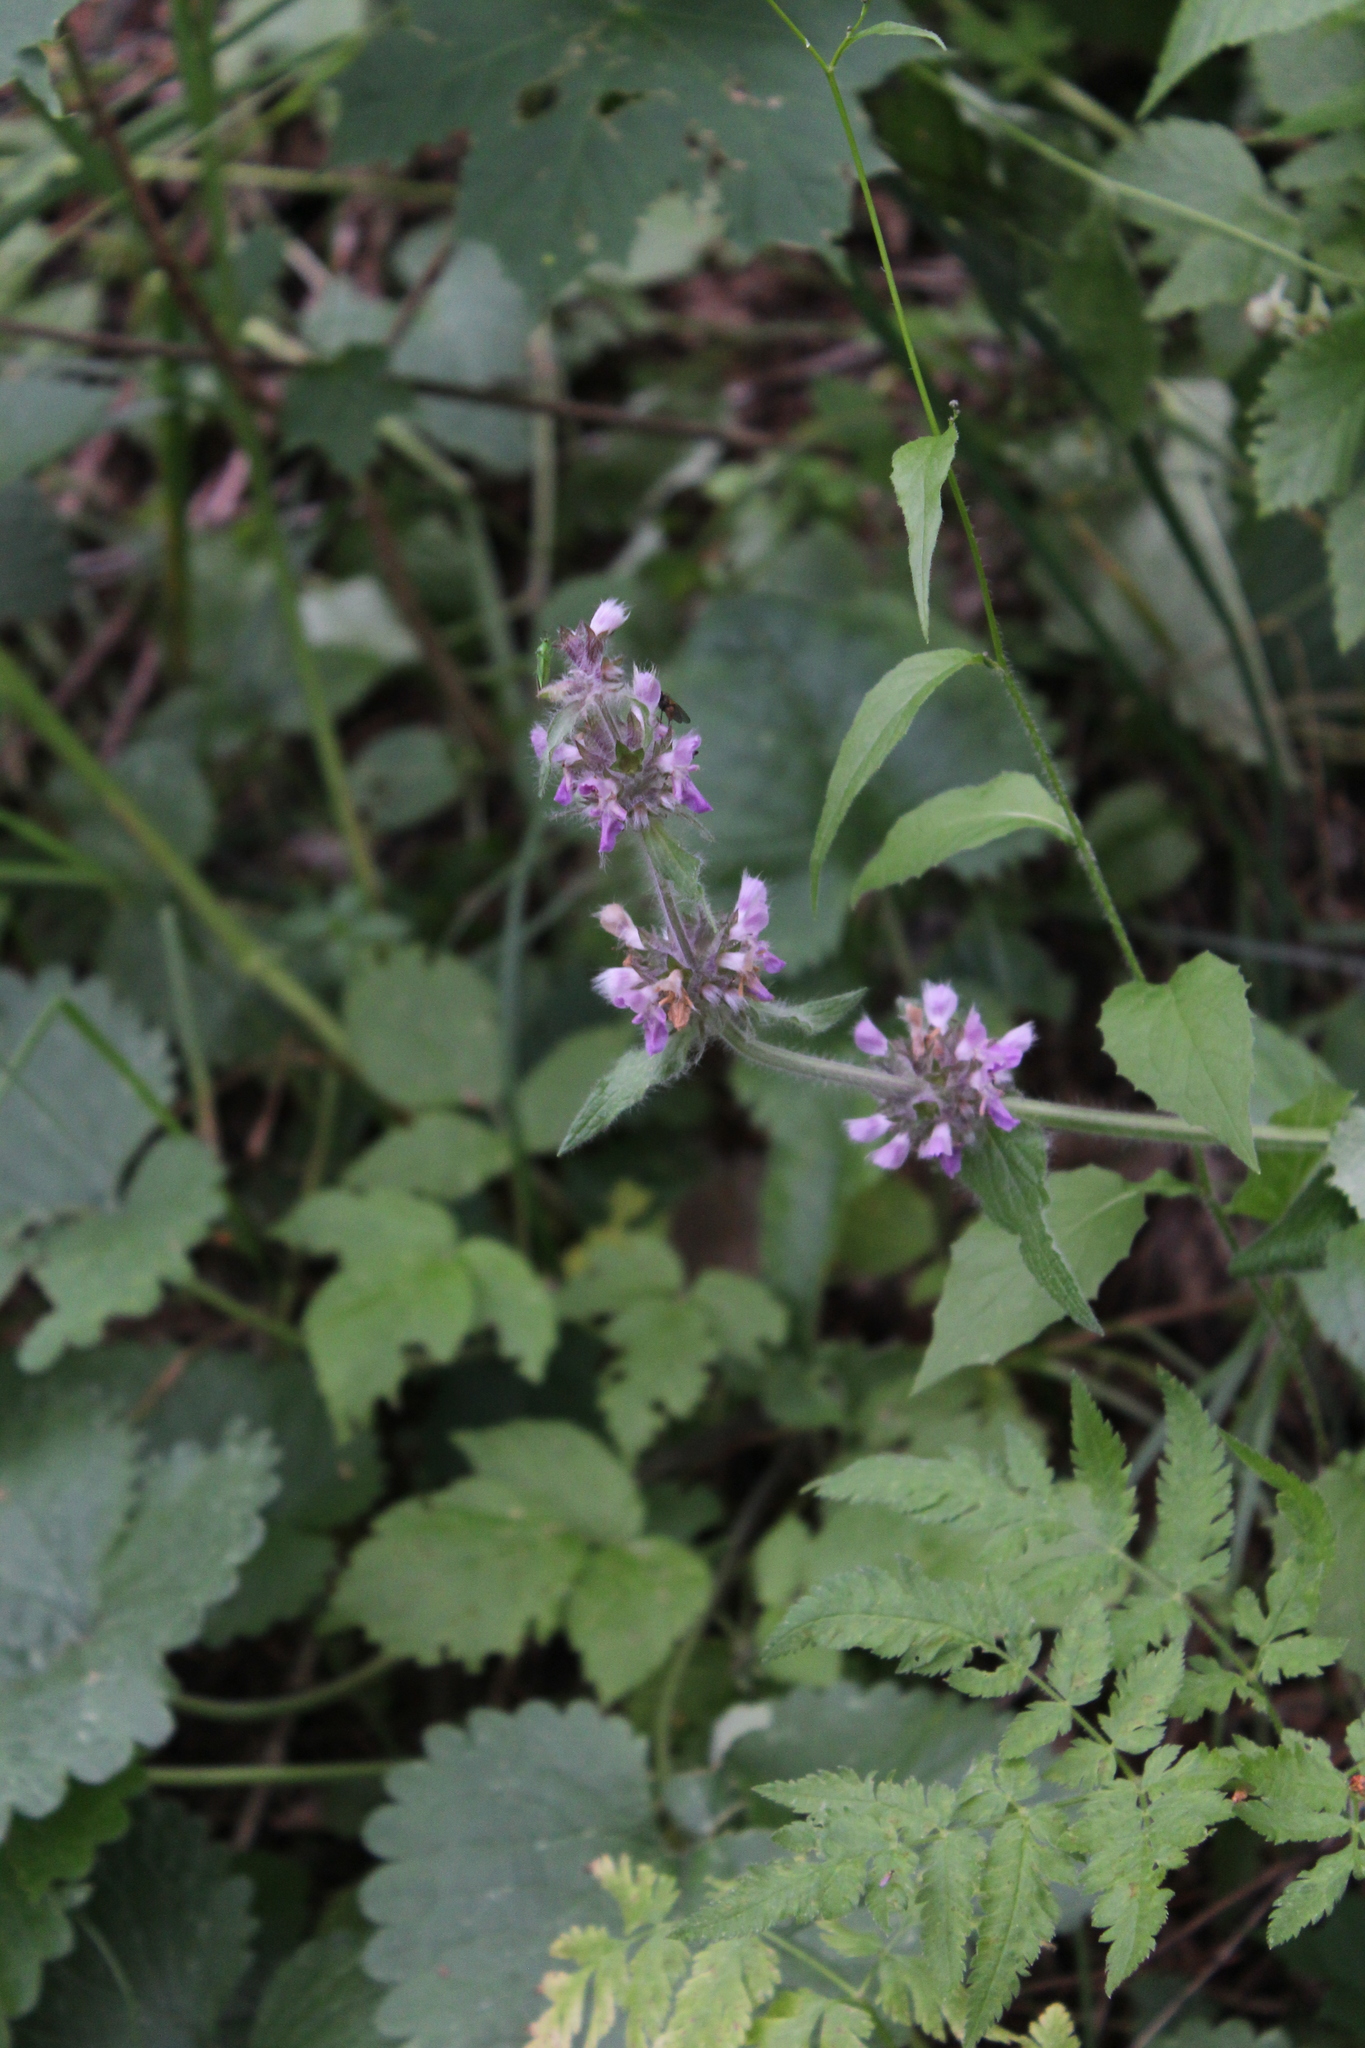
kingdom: Plantae
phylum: Tracheophyta
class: Magnoliopsida
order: Lamiales
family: Lamiaceae
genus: Stachys
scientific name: Stachys balansae
